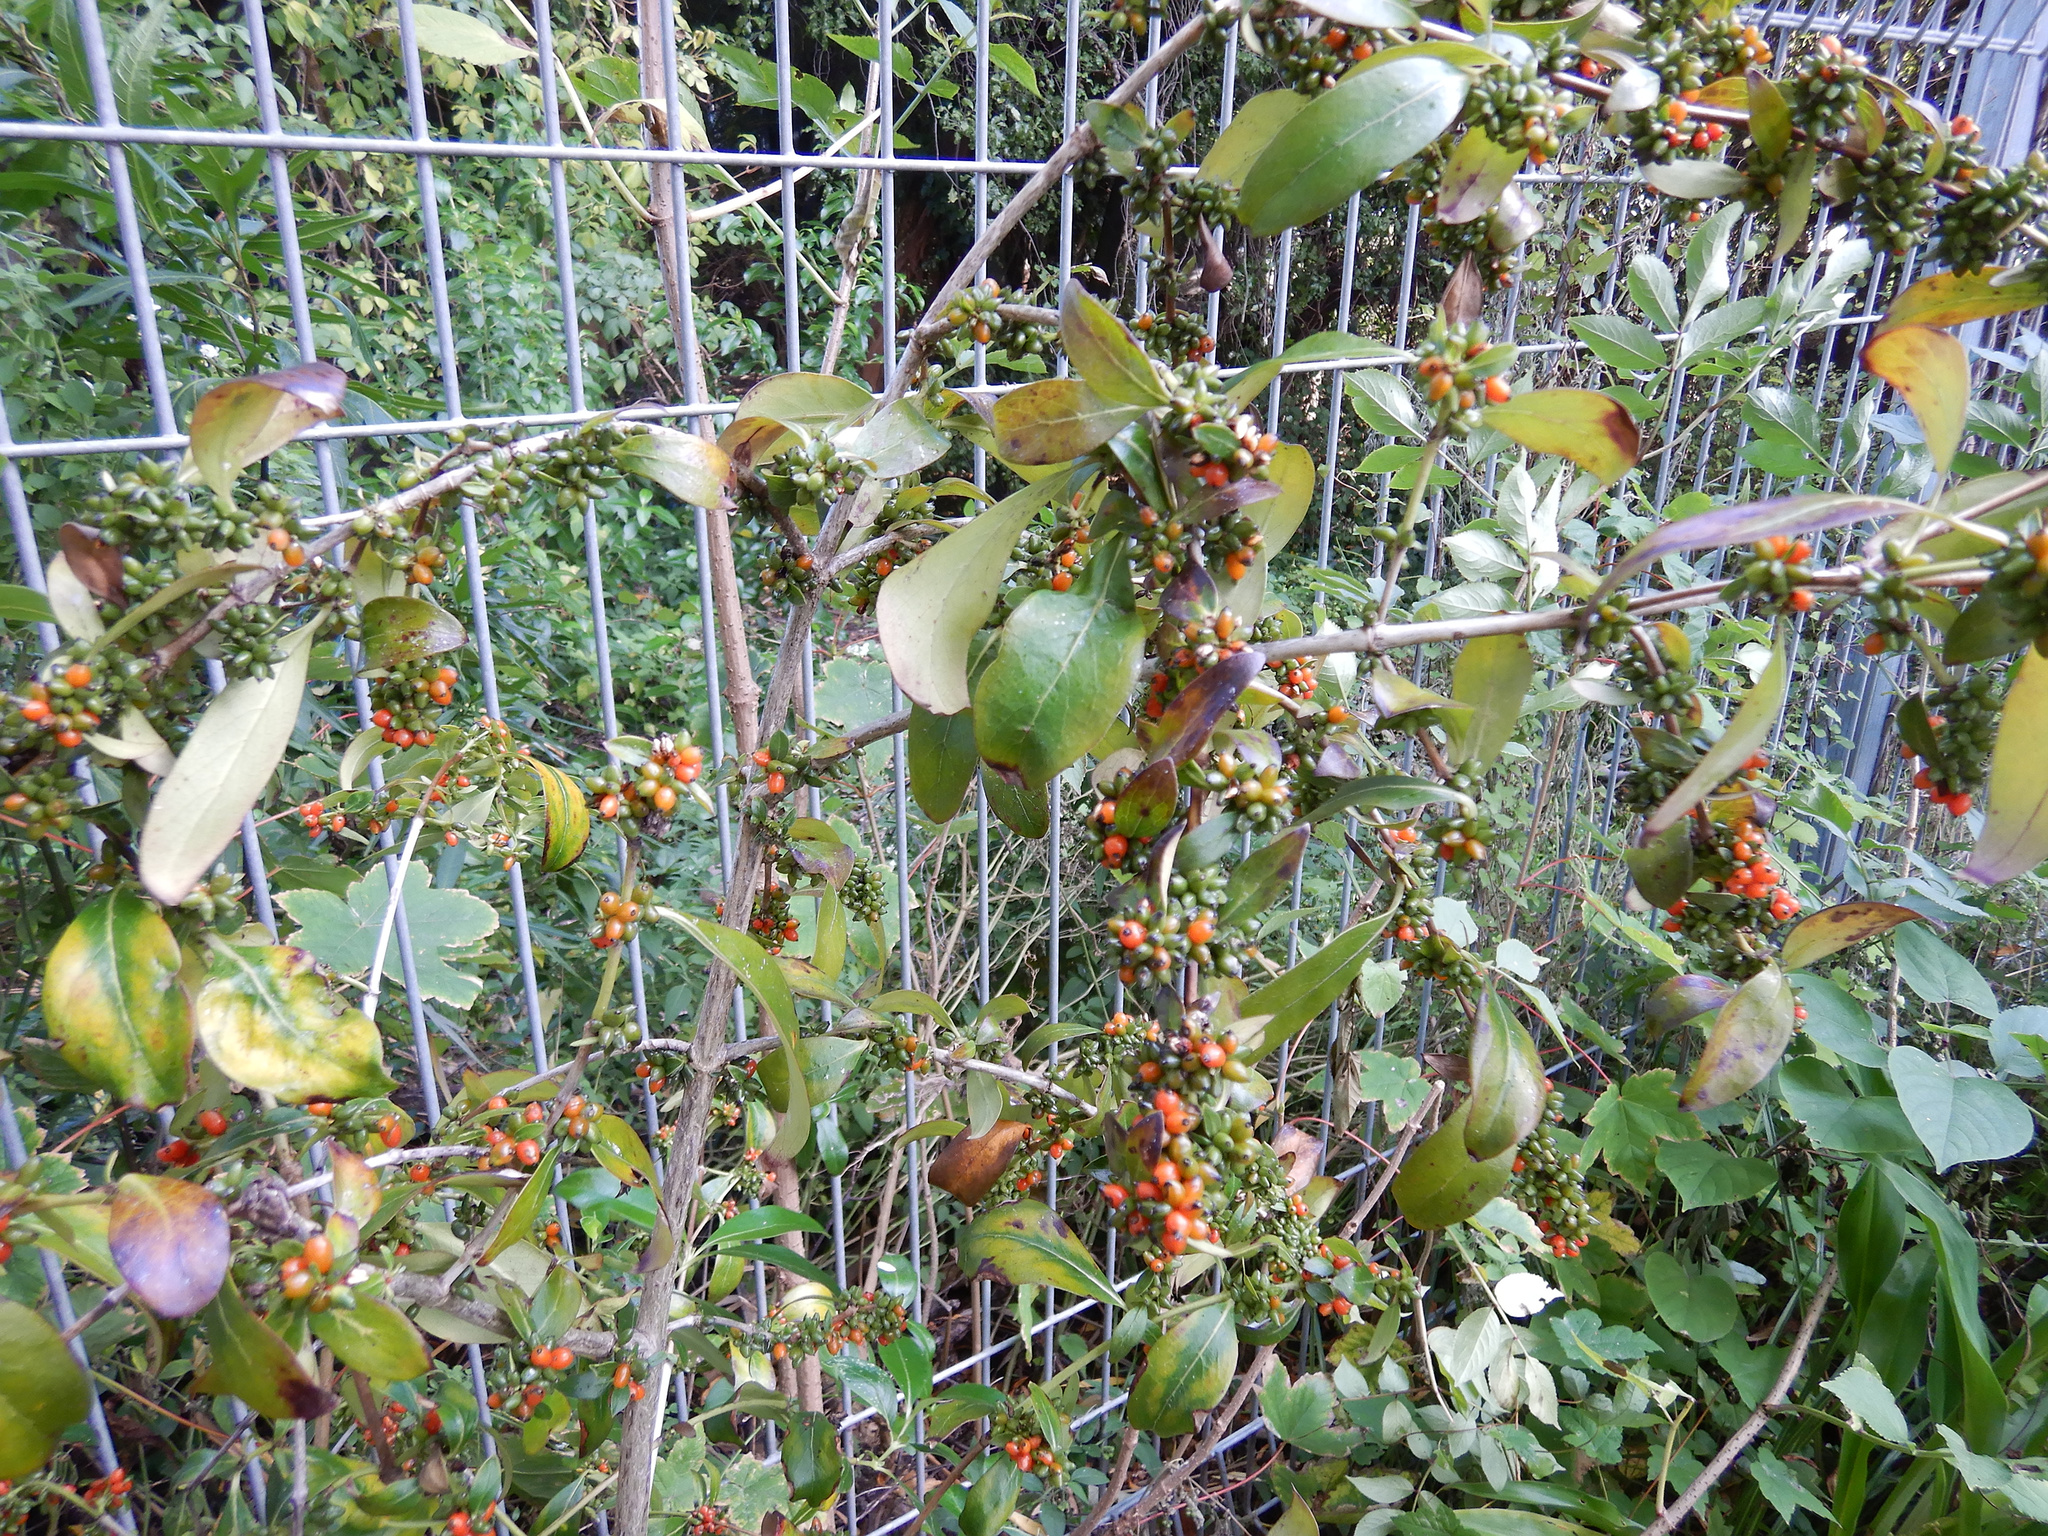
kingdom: Plantae
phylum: Tracheophyta
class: Magnoliopsida
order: Gentianales
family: Rubiaceae
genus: Coprosma
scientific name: Coprosma robusta
